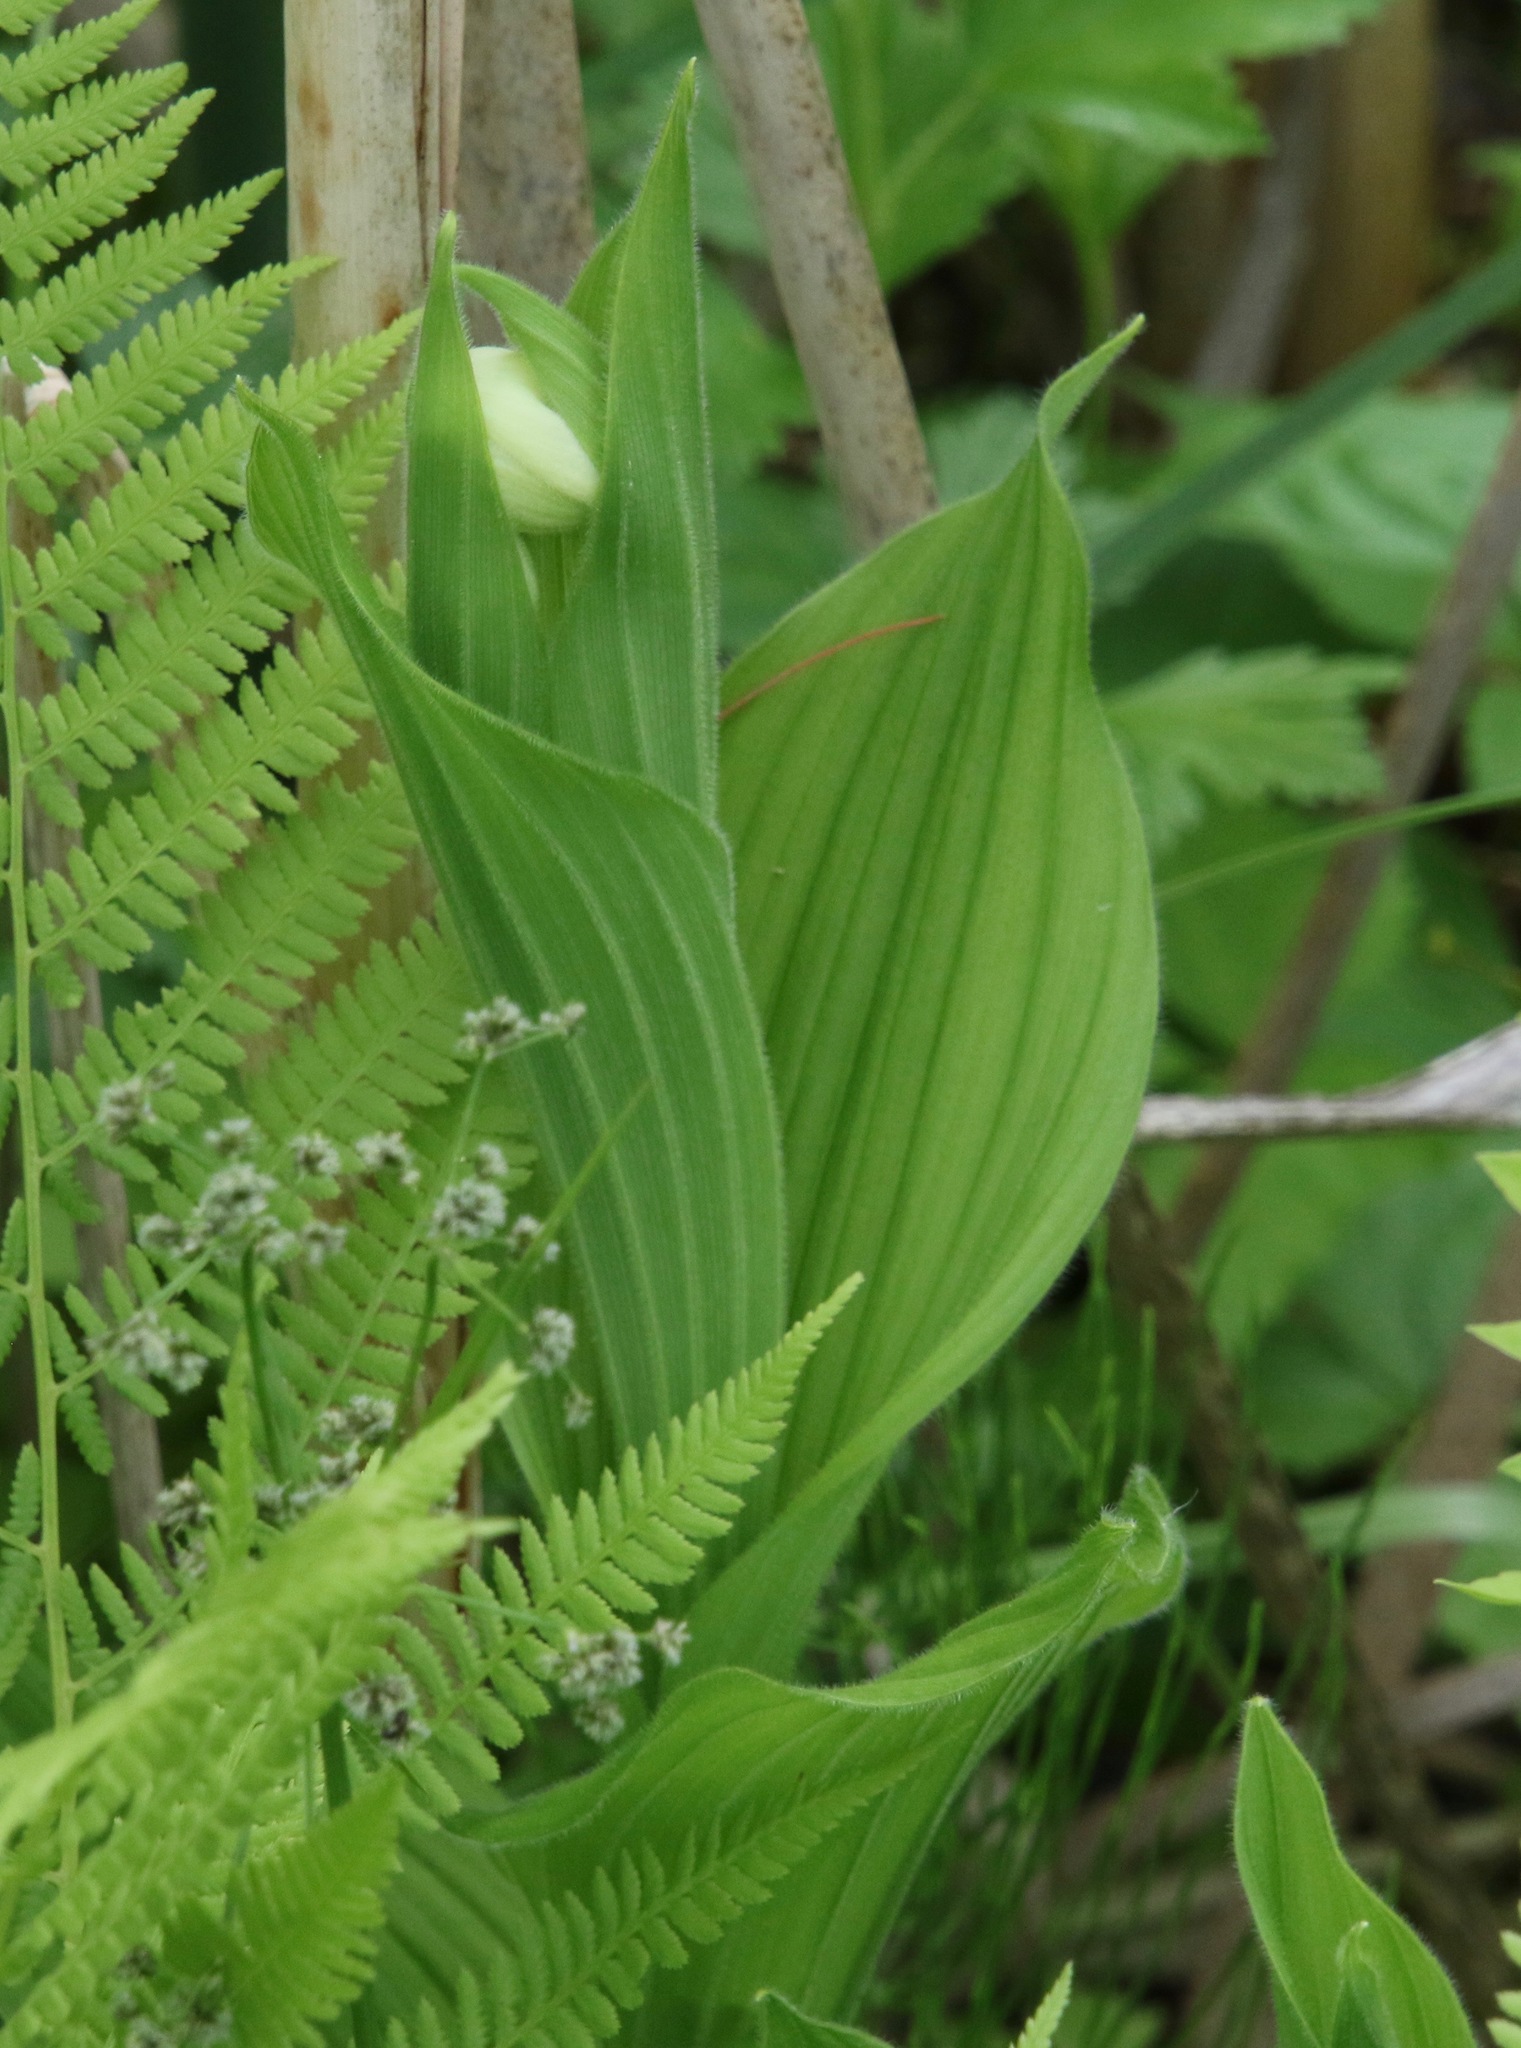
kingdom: Plantae
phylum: Tracheophyta
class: Liliopsida
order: Asparagales
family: Orchidaceae
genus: Cypripedium
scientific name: Cypripedium reginae
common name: Queen lady's-slipper
